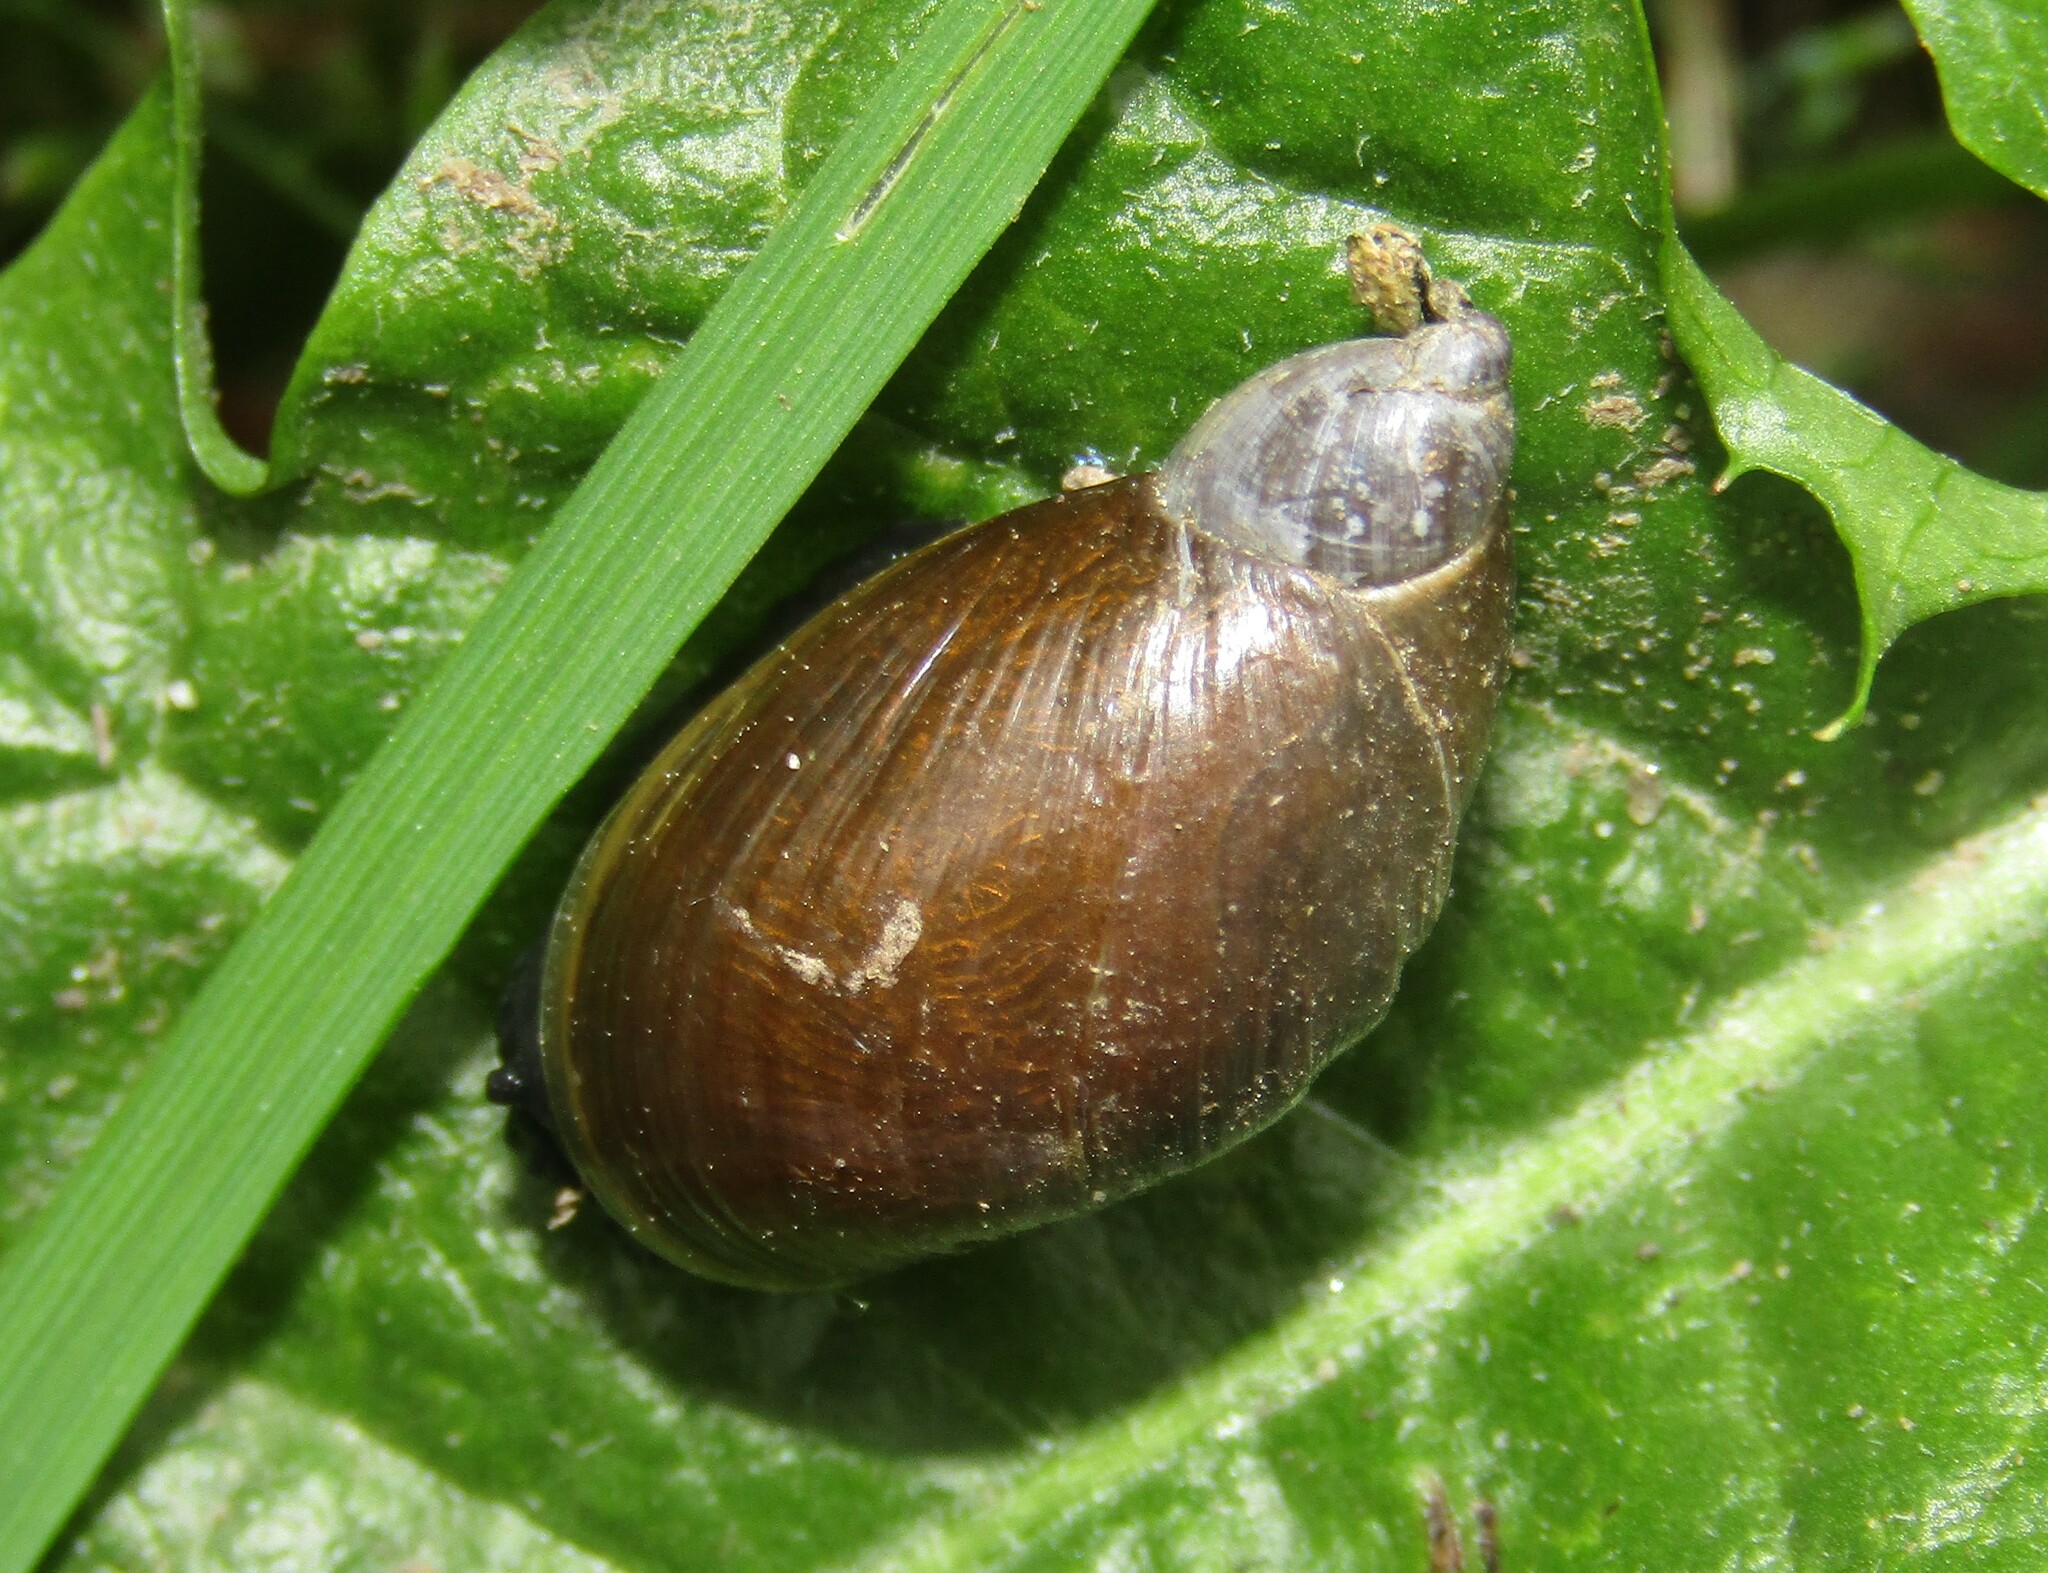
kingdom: Animalia
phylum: Mollusca
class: Gastropoda
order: Stylommatophora
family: Succineidae
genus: Succinea
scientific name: Succinea putris
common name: European ambersnail
